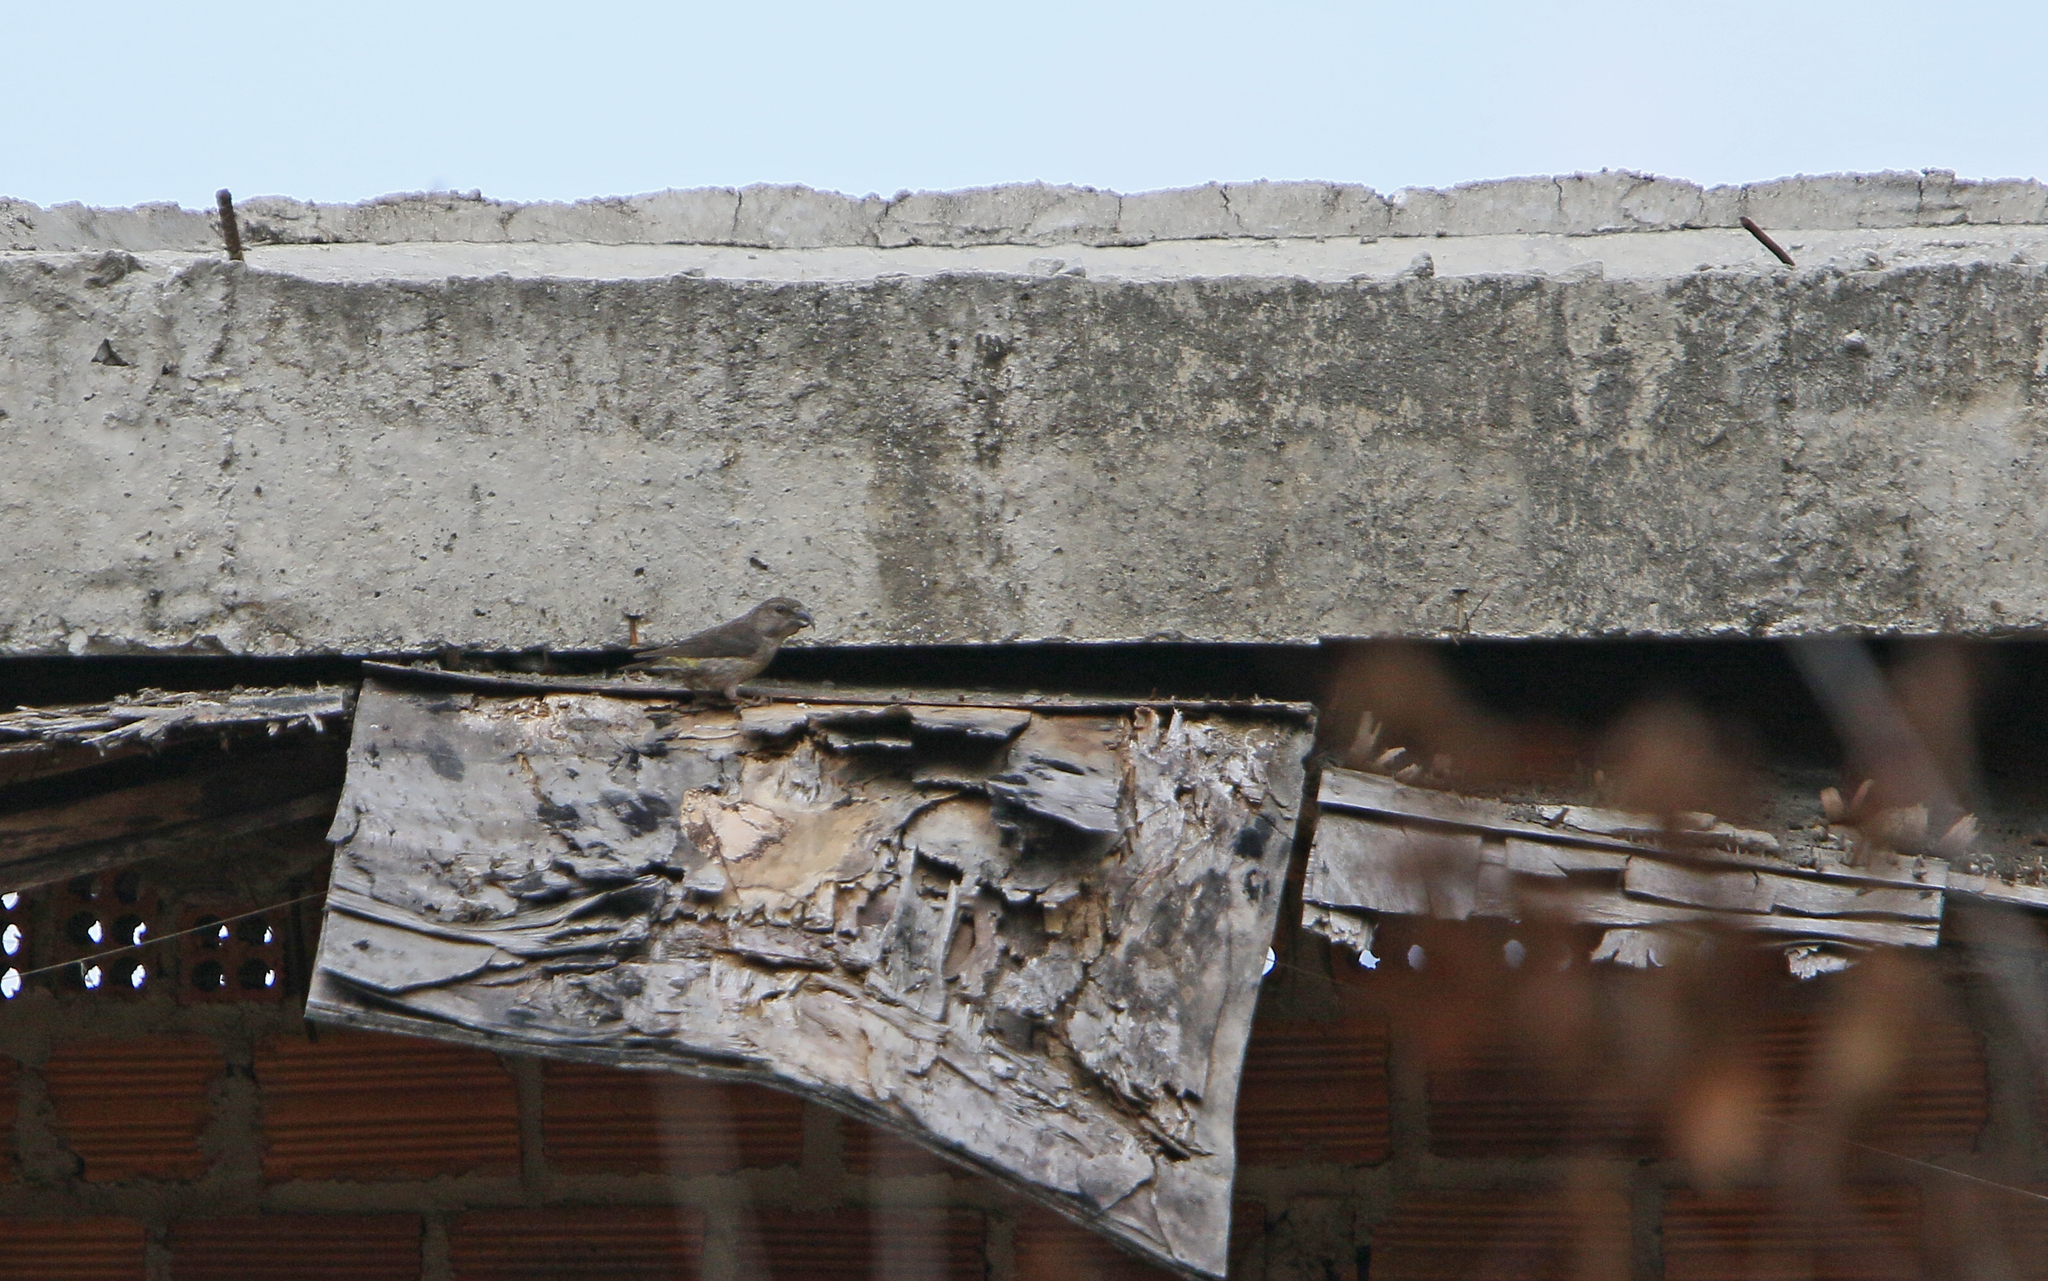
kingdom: Animalia
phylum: Chordata
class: Aves
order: Passeriformes
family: Fringillidae
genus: Loxia
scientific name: Loxia curvirostra
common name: Red crossbill
